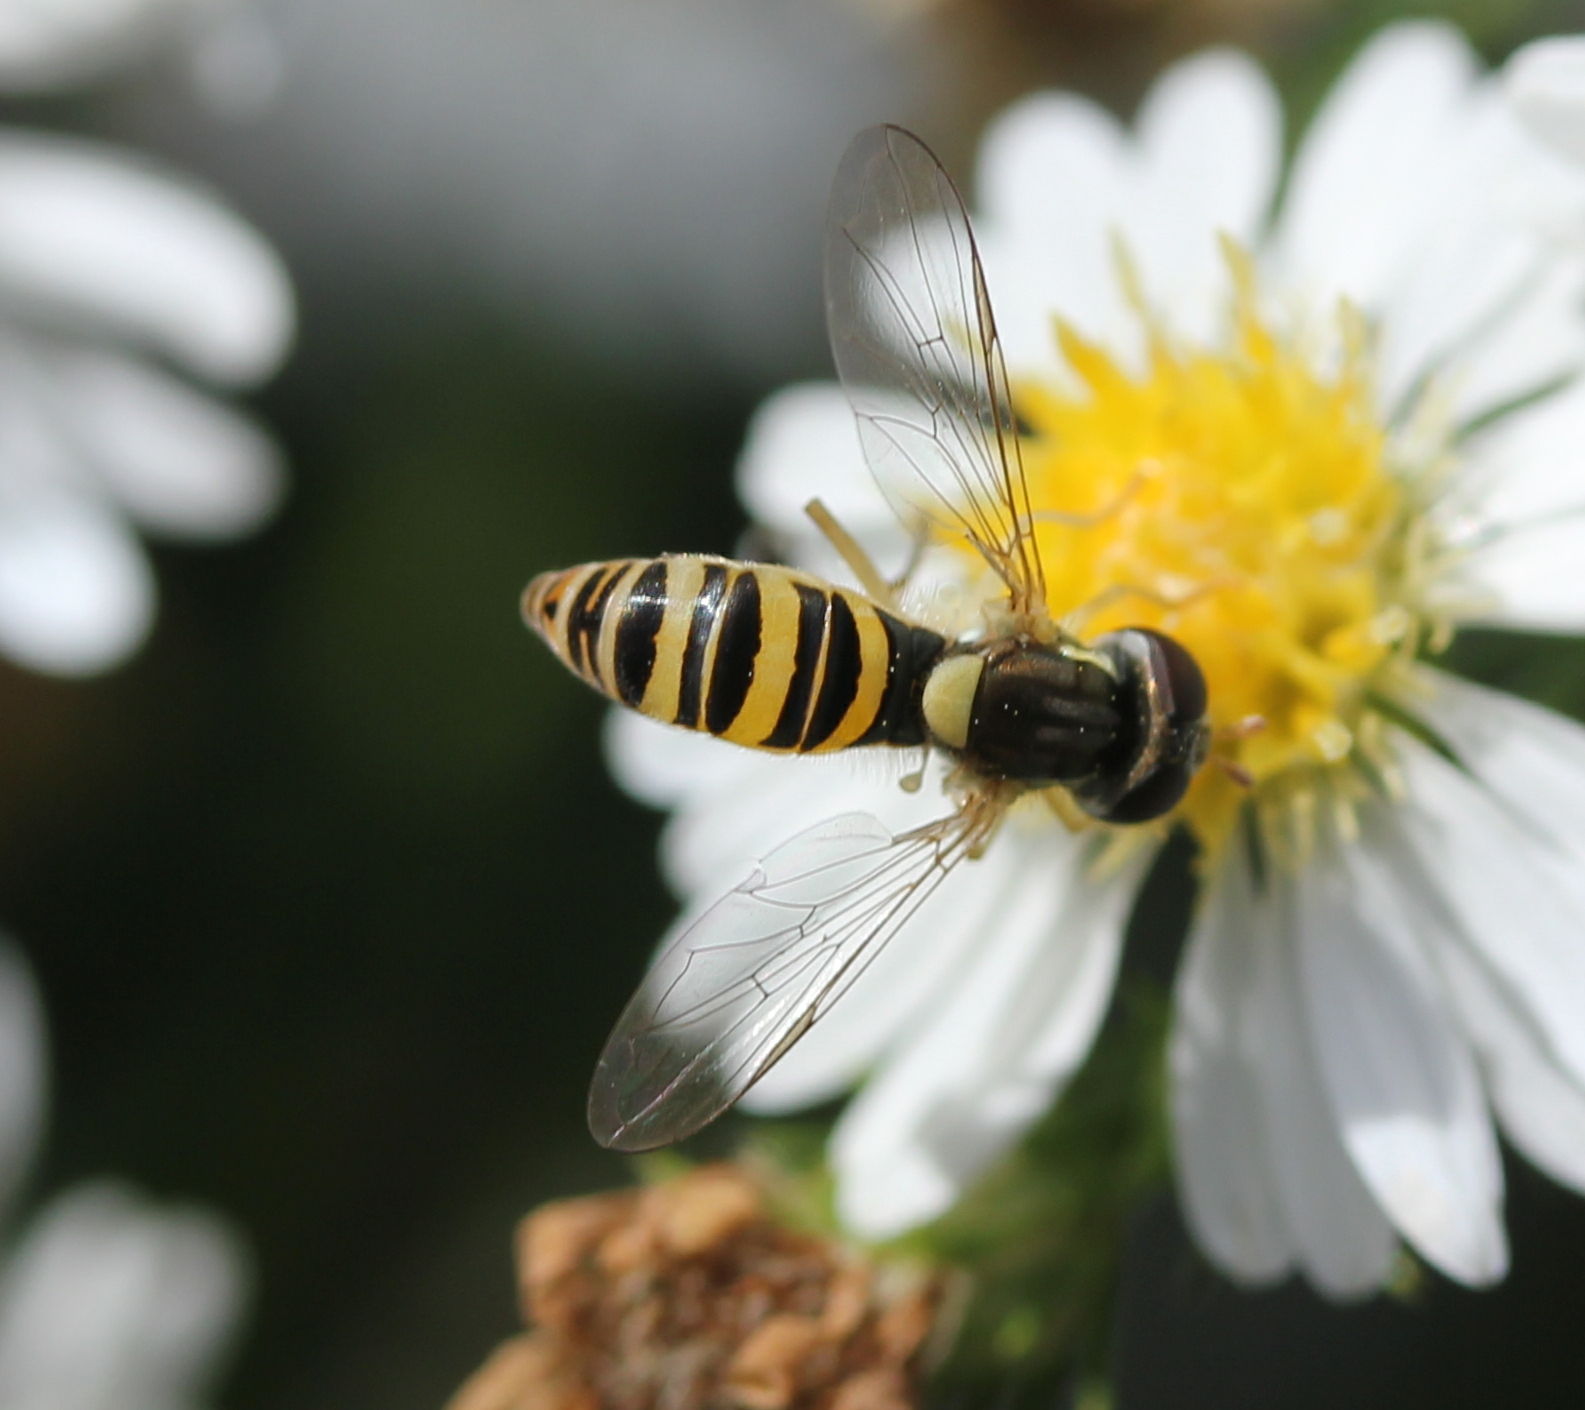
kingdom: Animalia
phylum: Arthropoda
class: Insecta
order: Diptera
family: Syrphidae
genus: Sphaerophoria
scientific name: Sphaerophoria contigua
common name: Tufted globetail
